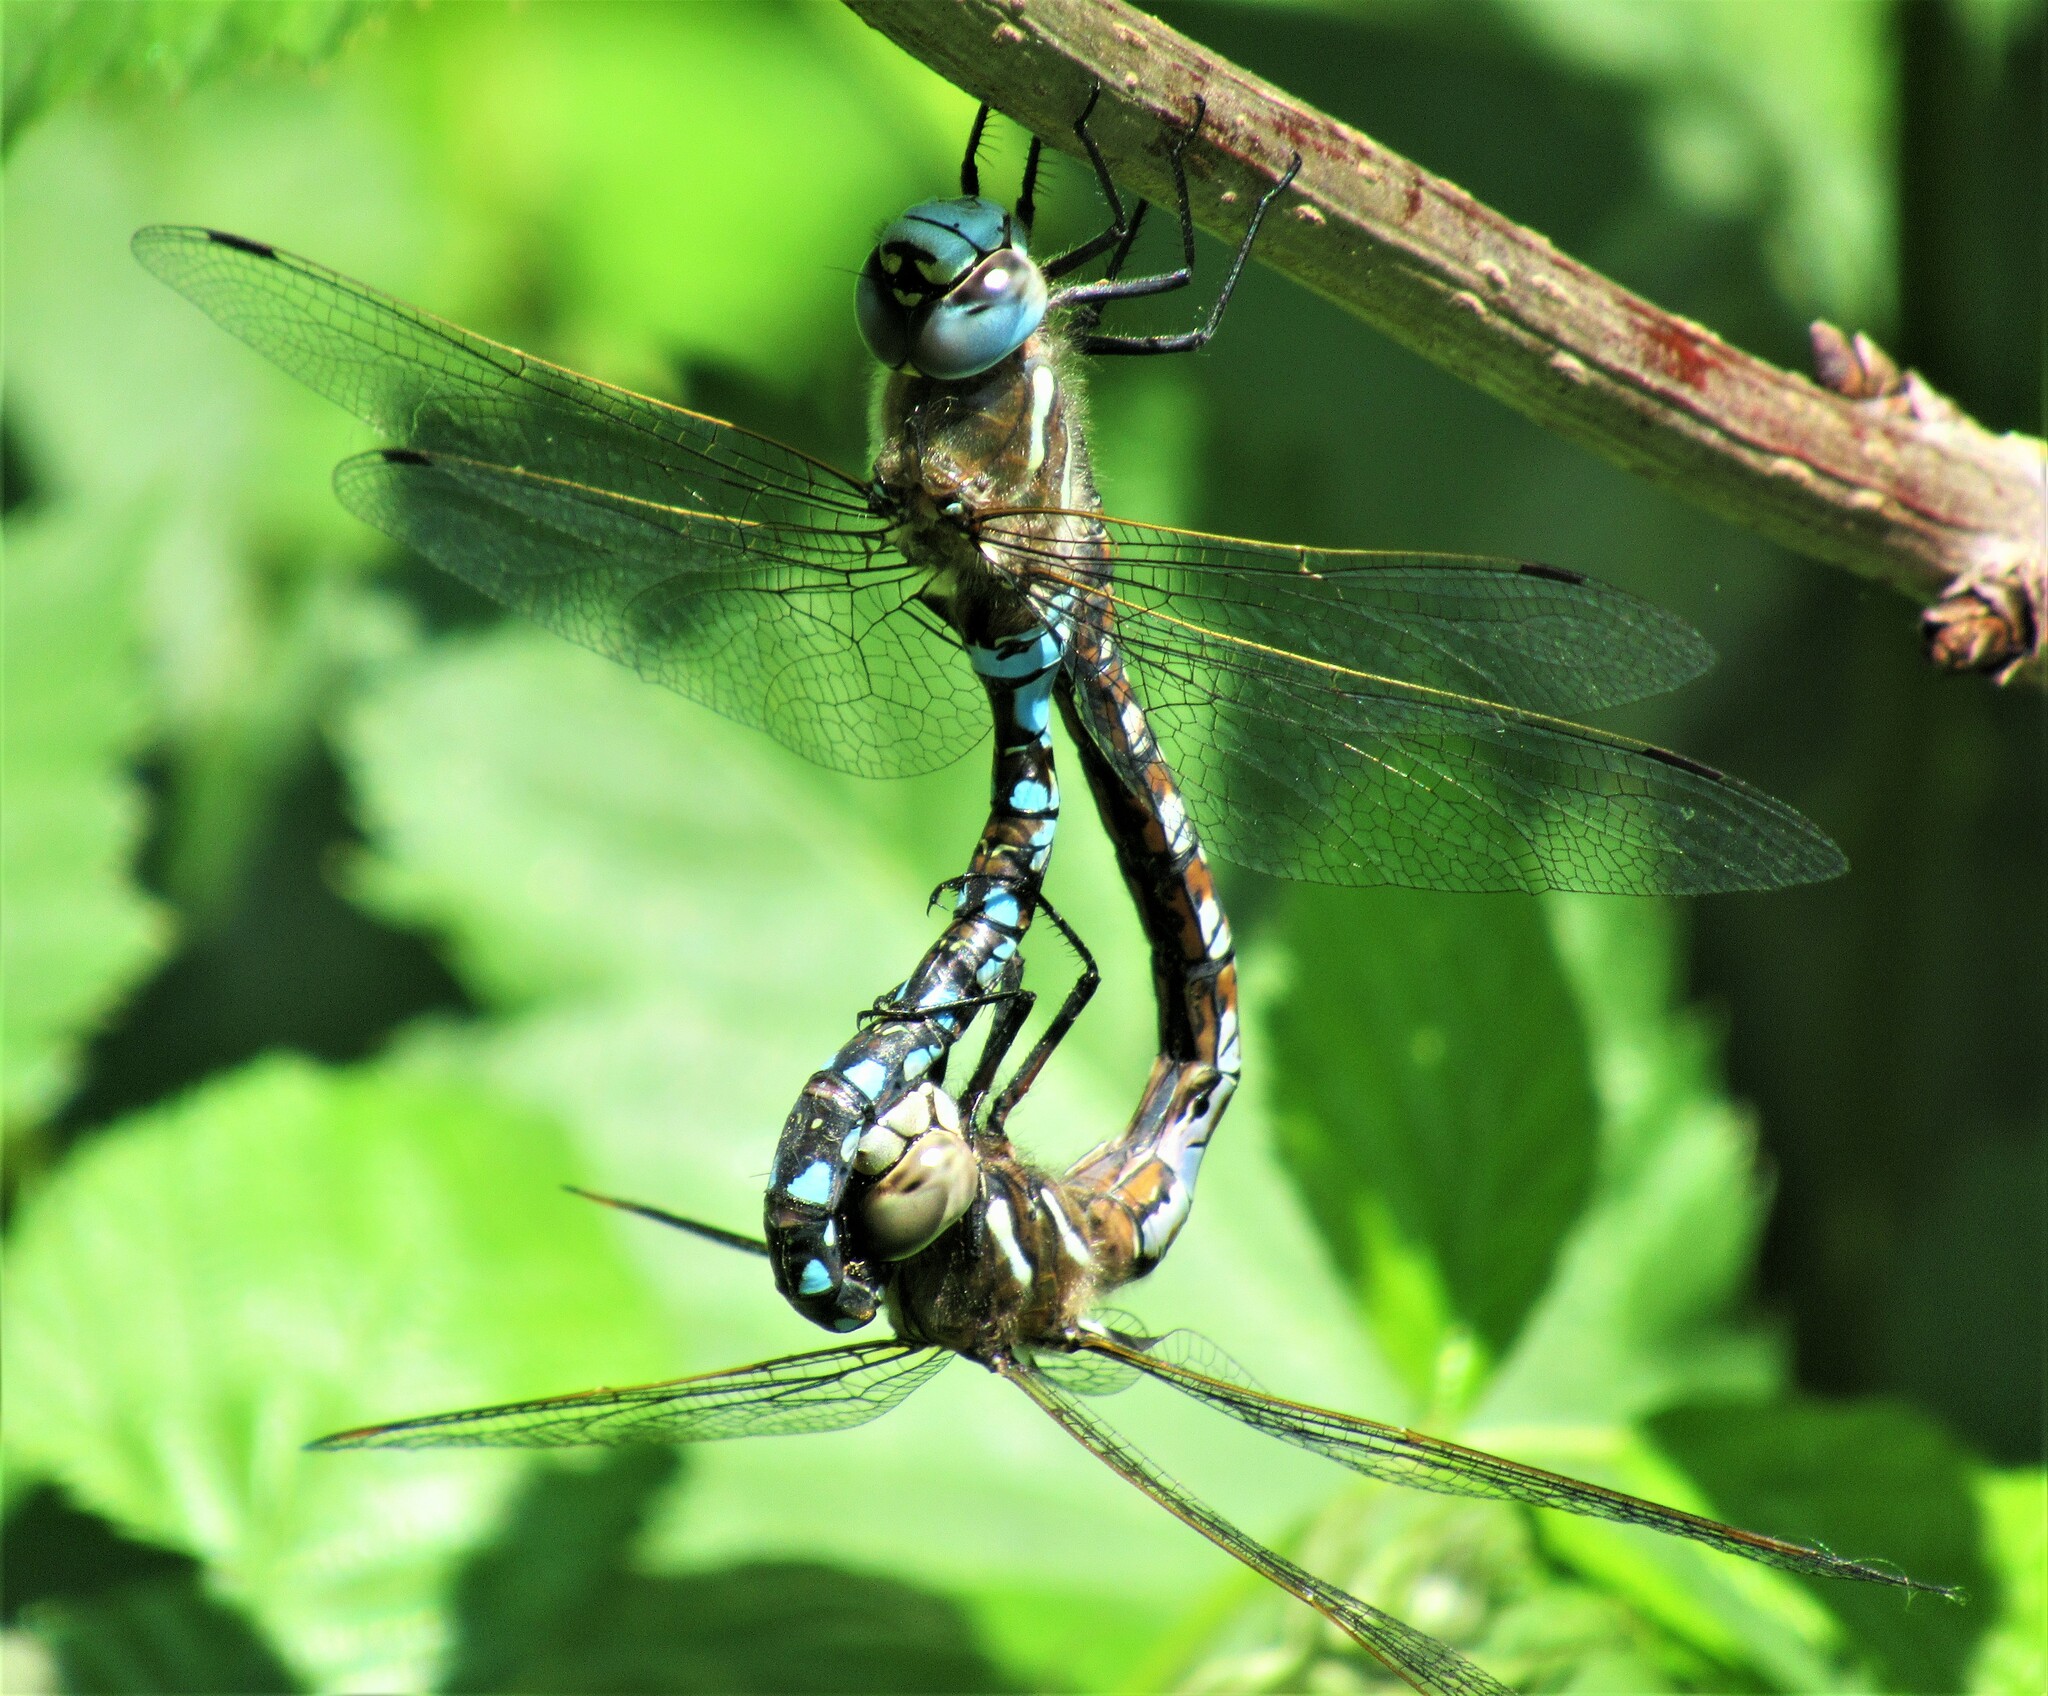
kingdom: Animalia
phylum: Arthropoda
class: Insecta
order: Odonata
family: Aeshnidae
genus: Rhionaeschna
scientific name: Rhionaeschna californica
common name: California darner
